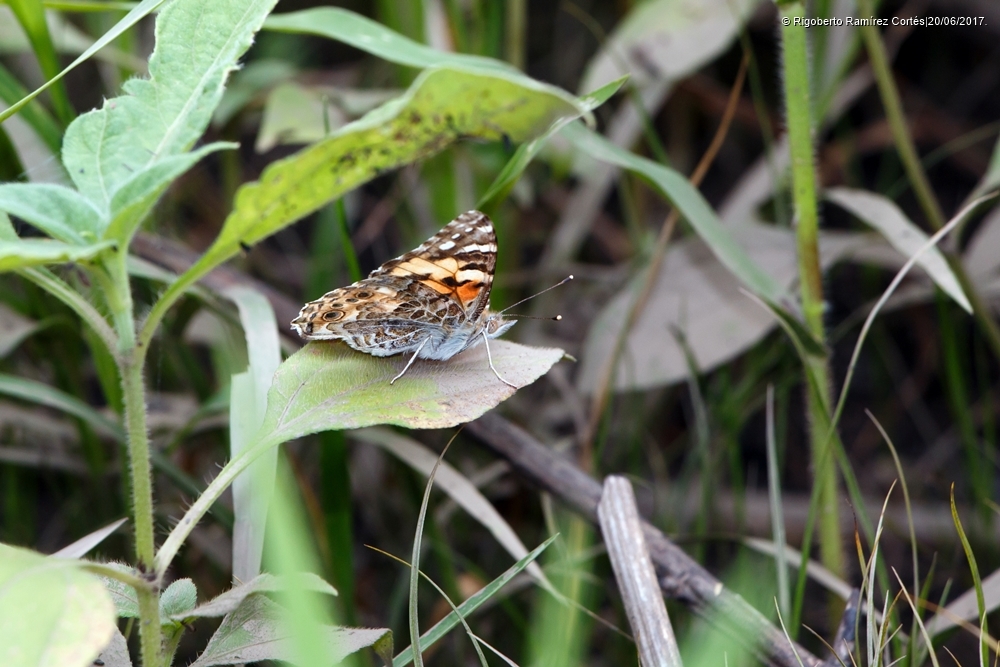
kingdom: Animalia
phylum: Arthropoda
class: Insecta
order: Lepidoptera
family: Nymphalidae
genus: Vanessa
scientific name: Vanessa cardui
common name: Painted lady
